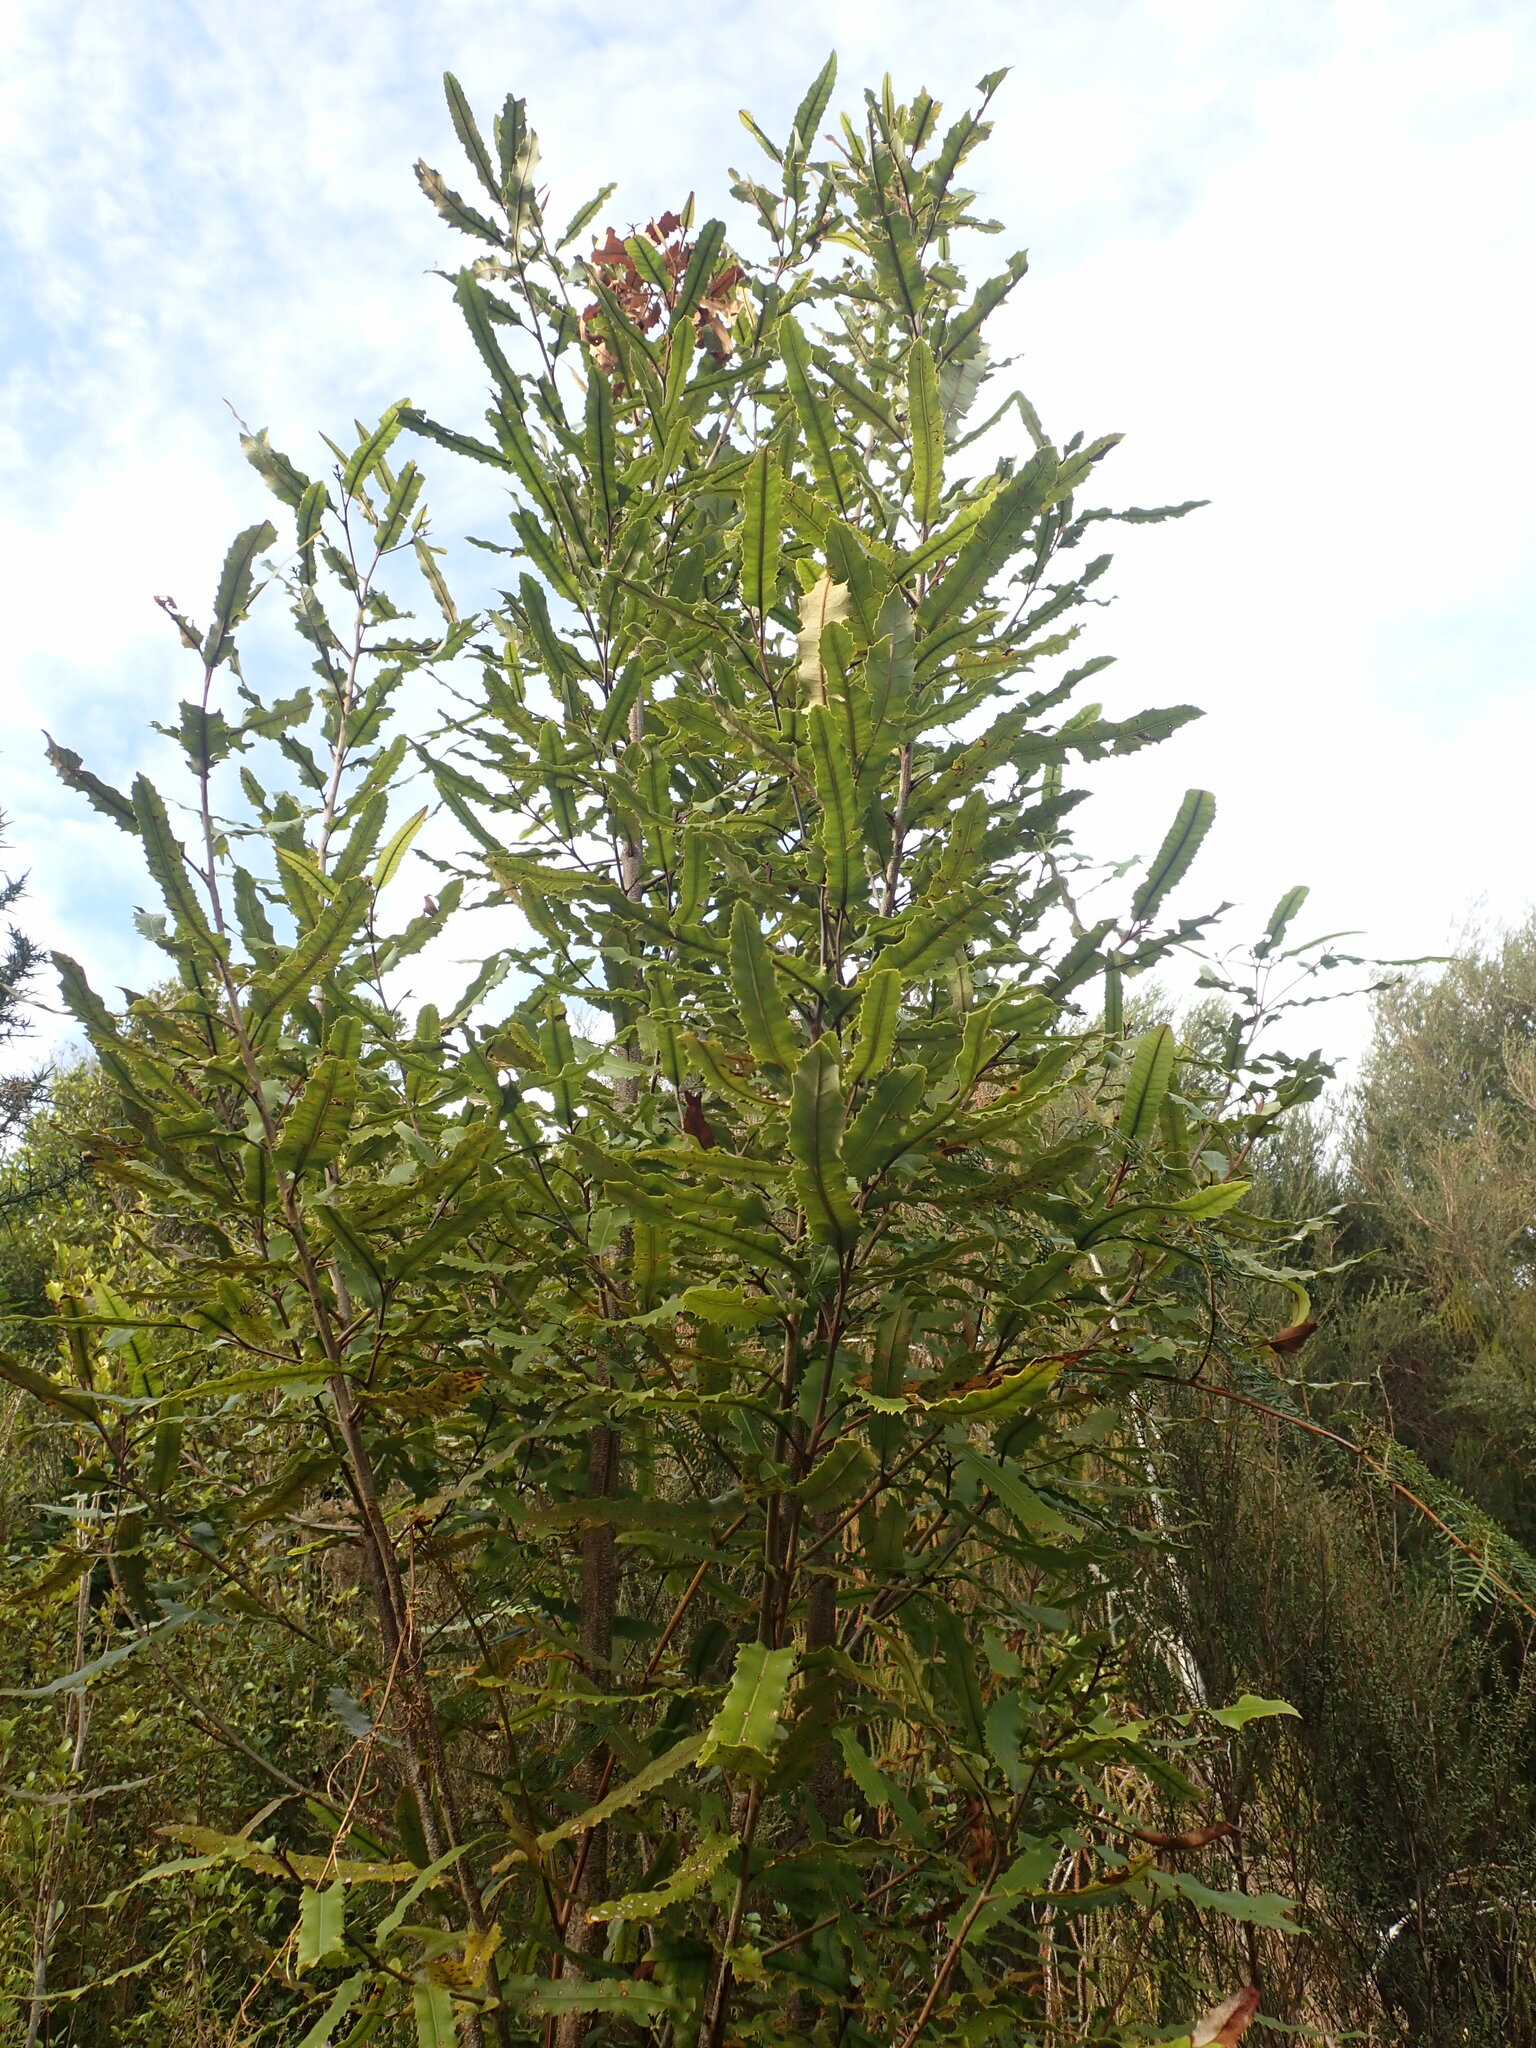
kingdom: Plantae
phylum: Tracheophyta
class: Magnoliopsida
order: Proteales
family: Proteaceae
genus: Knightia
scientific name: Knightia excelsa
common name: New zealand-honeysuckle
